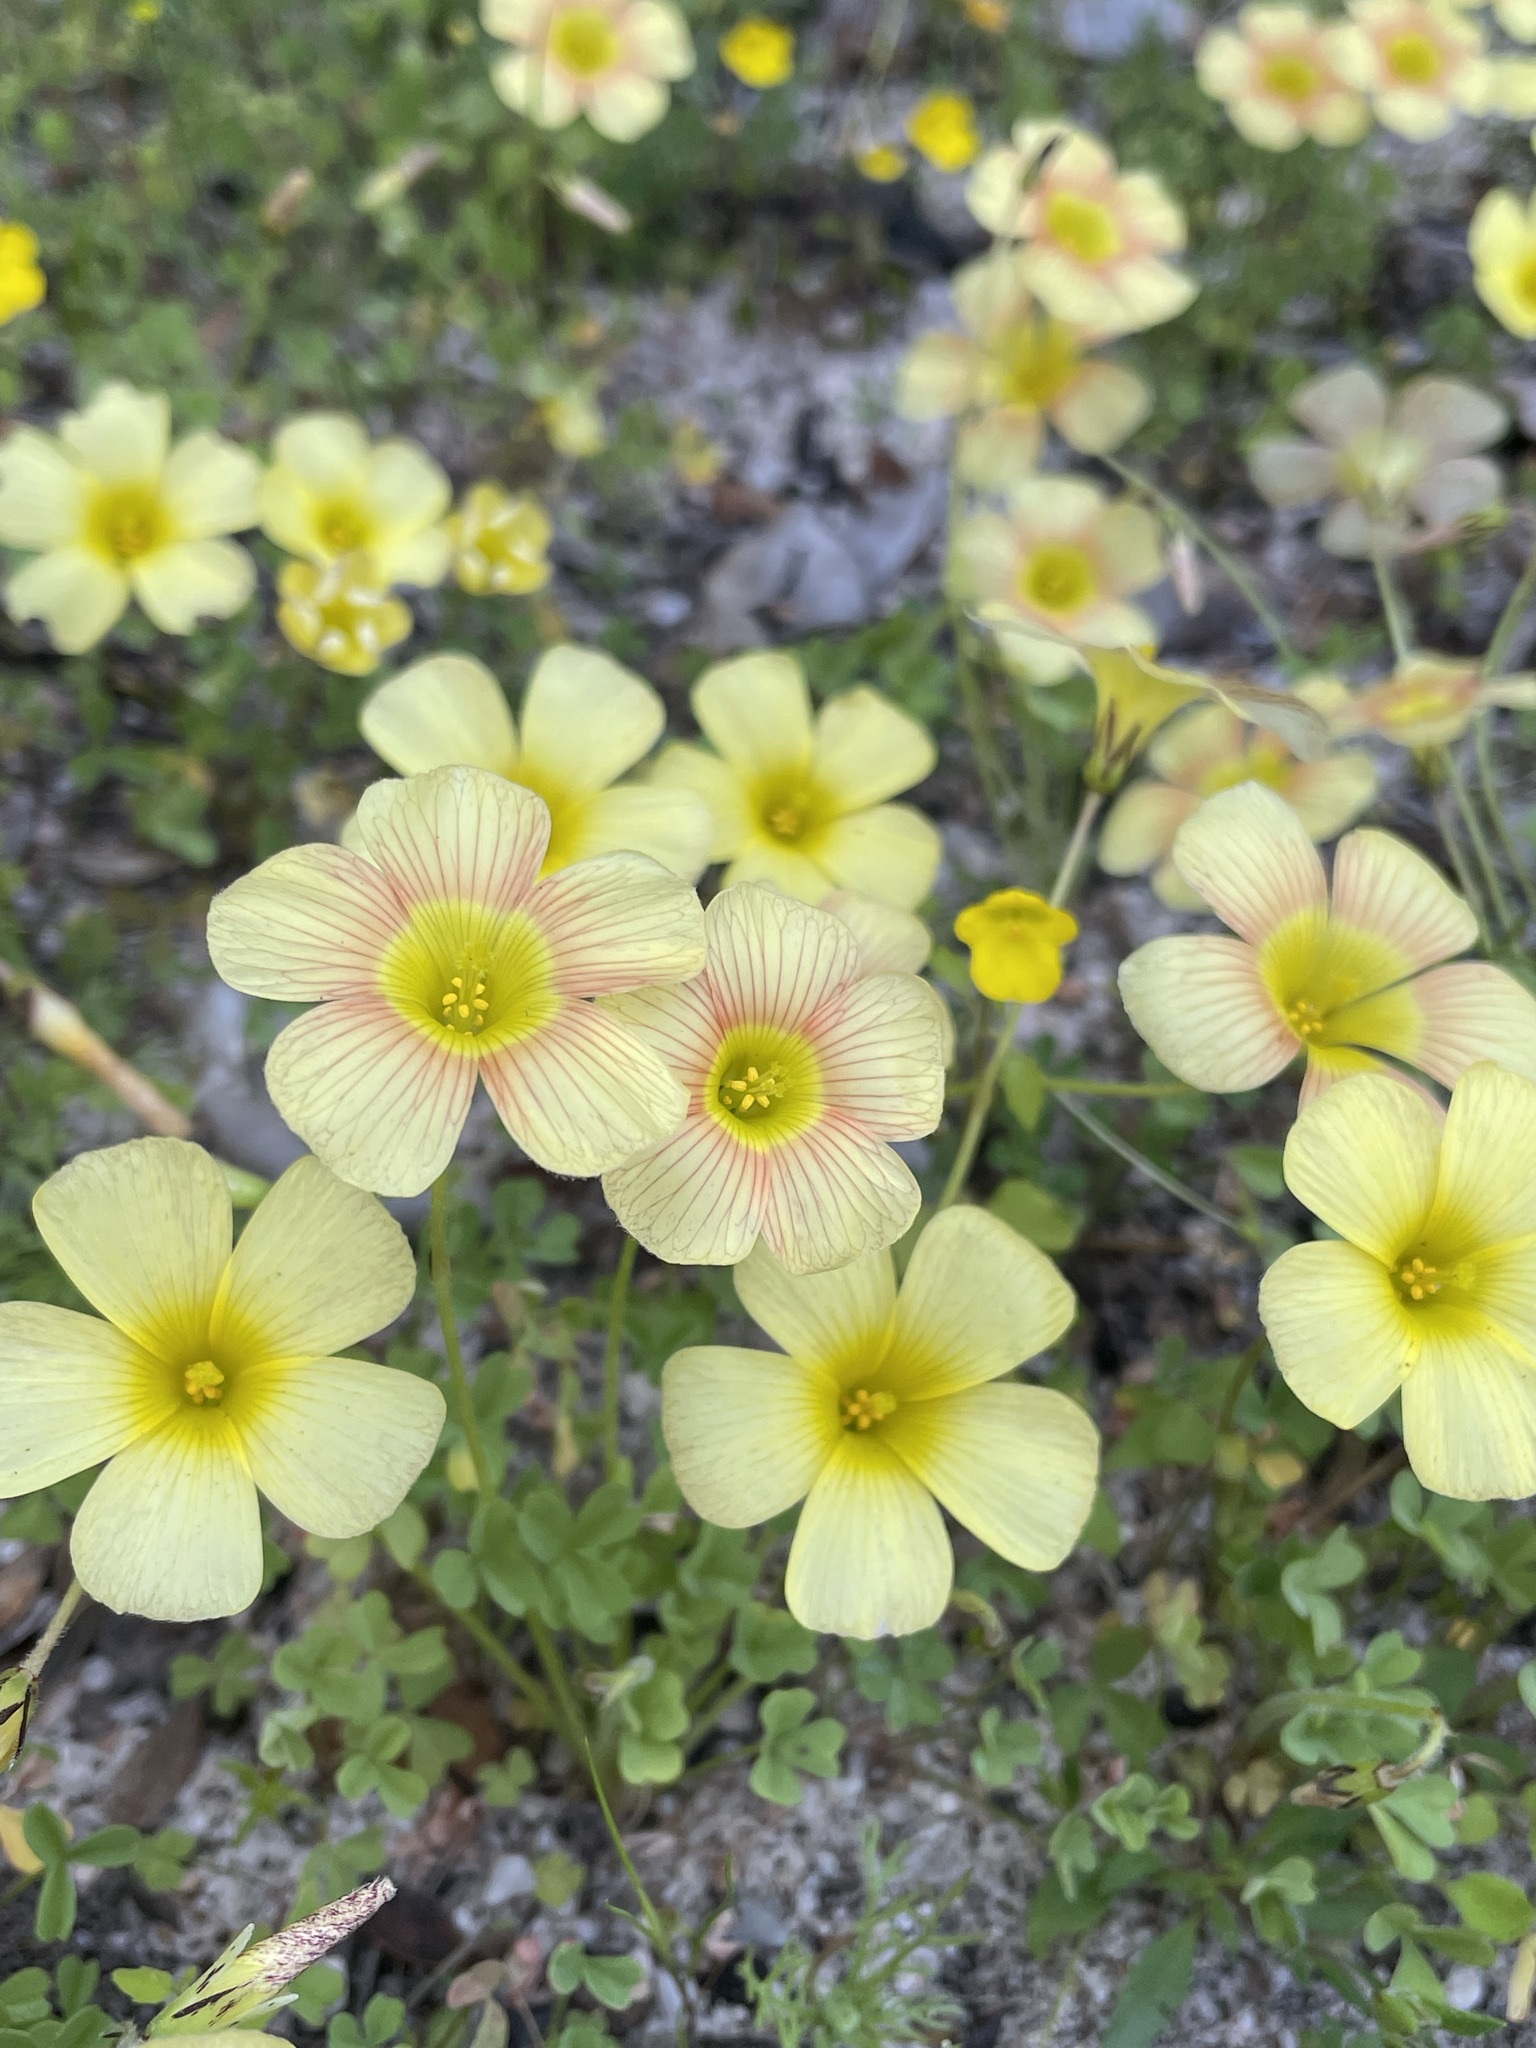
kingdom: Plantae
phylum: Tracheophyta
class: Magnoliopsida
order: Oxalidales
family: Oxalidaceae
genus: Oxalis
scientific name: Oxalis obtusa
